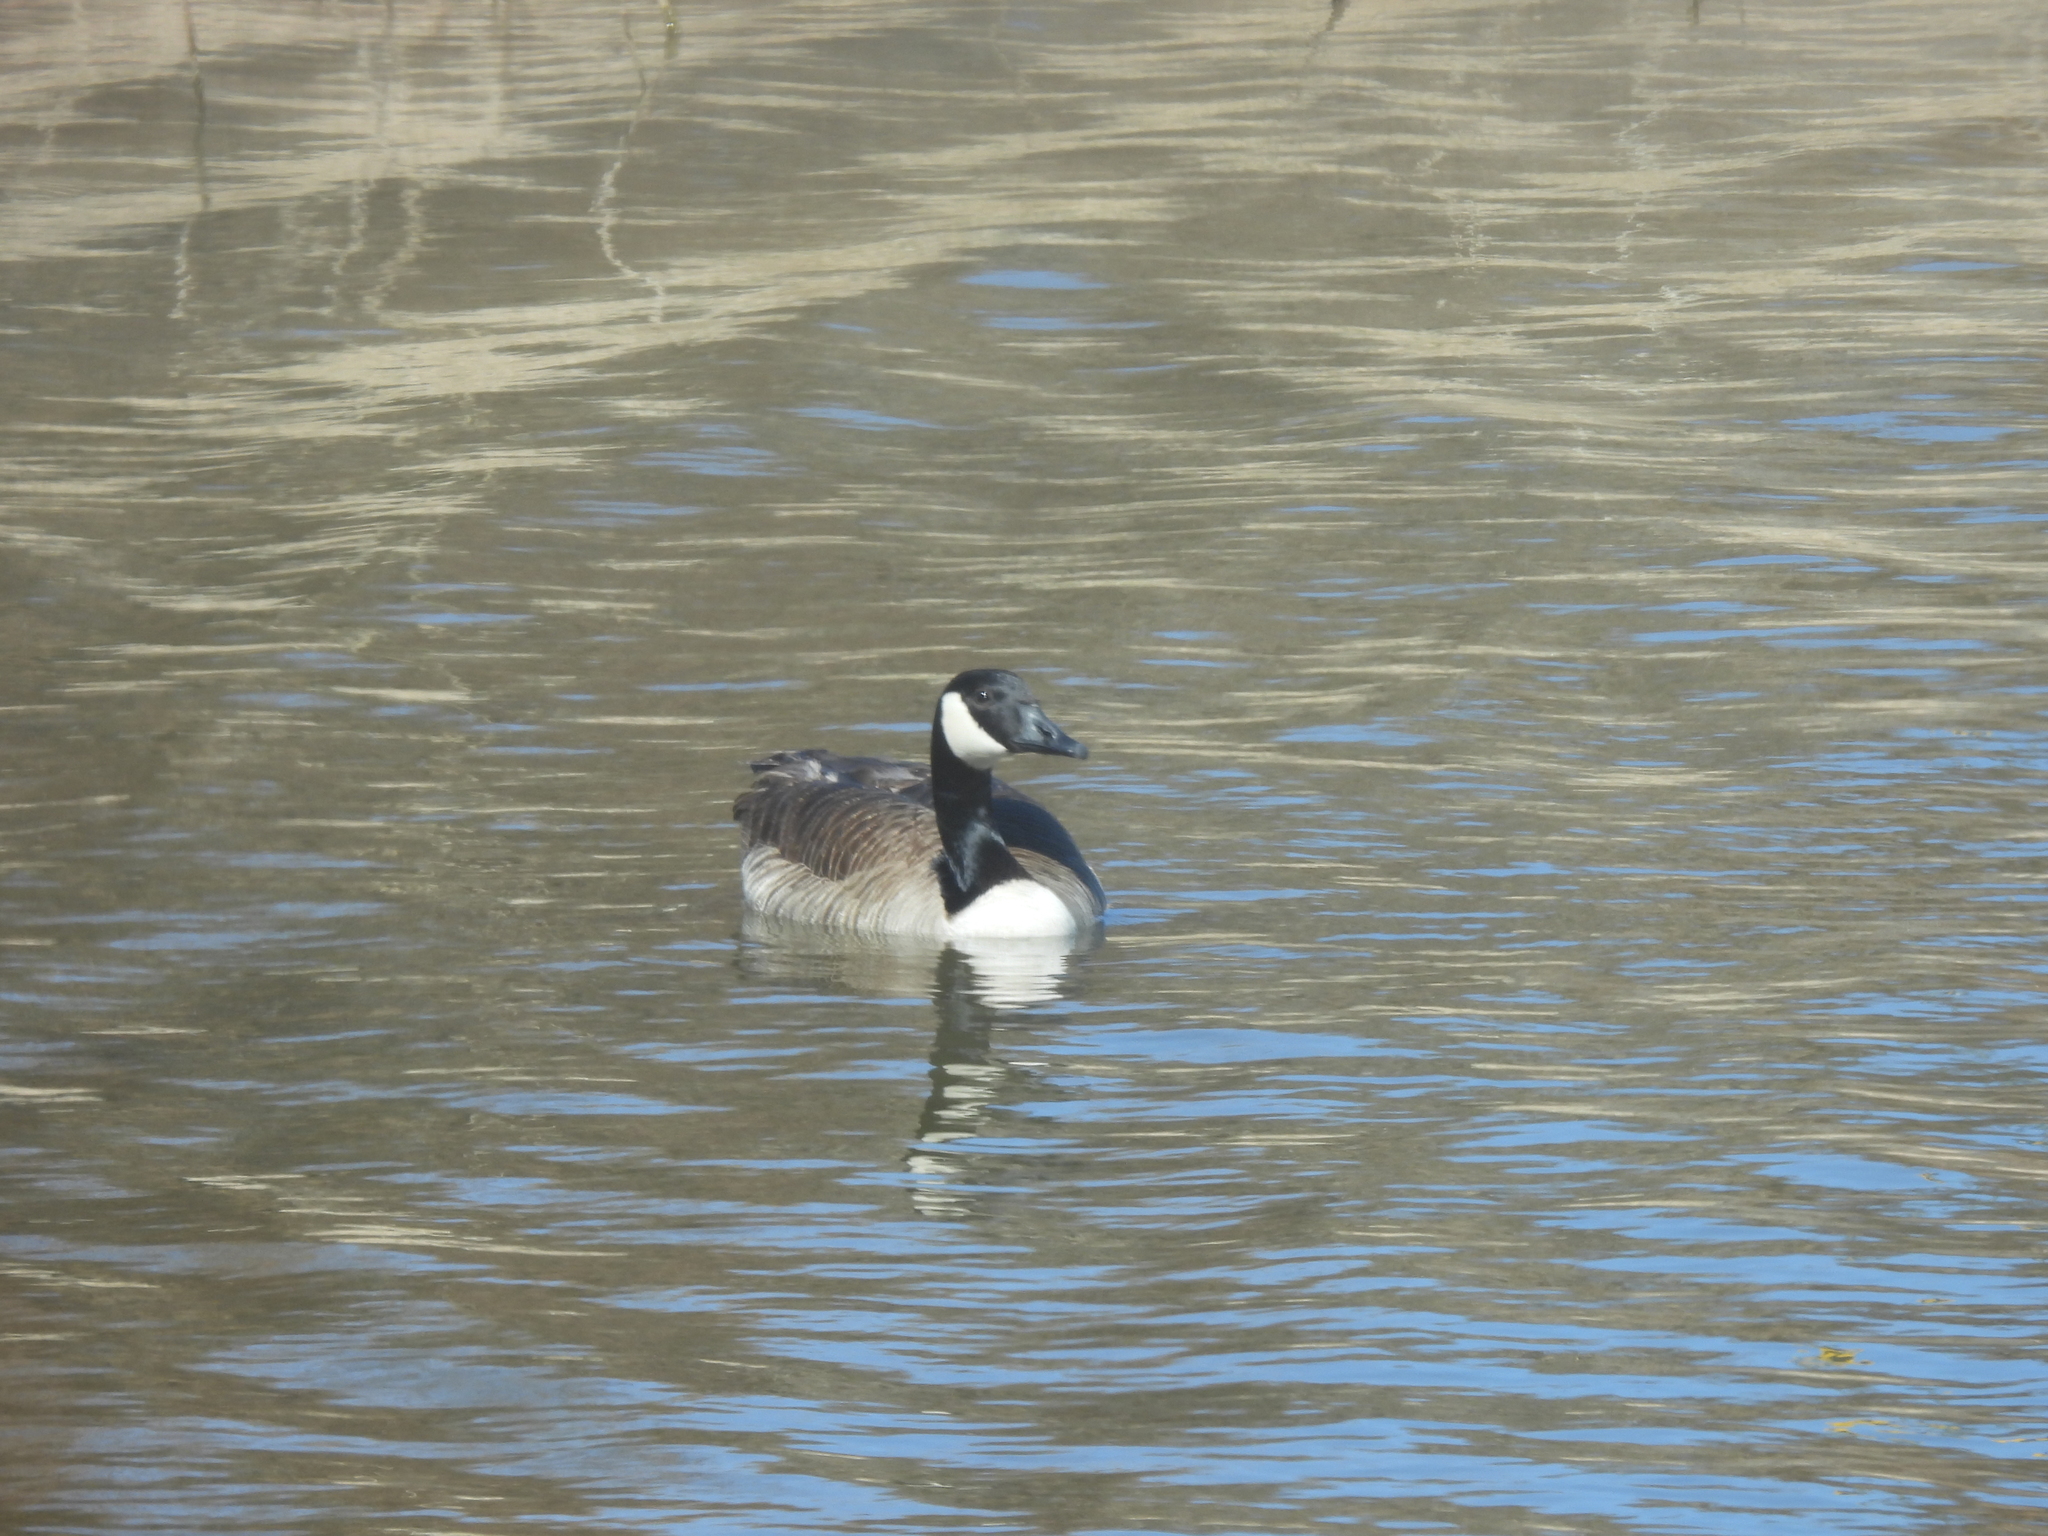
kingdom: Animalia
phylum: Chordata
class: Aves
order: Anseriformes
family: Anatidae
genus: Branta
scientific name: Branta canadensis
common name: Canada goose
